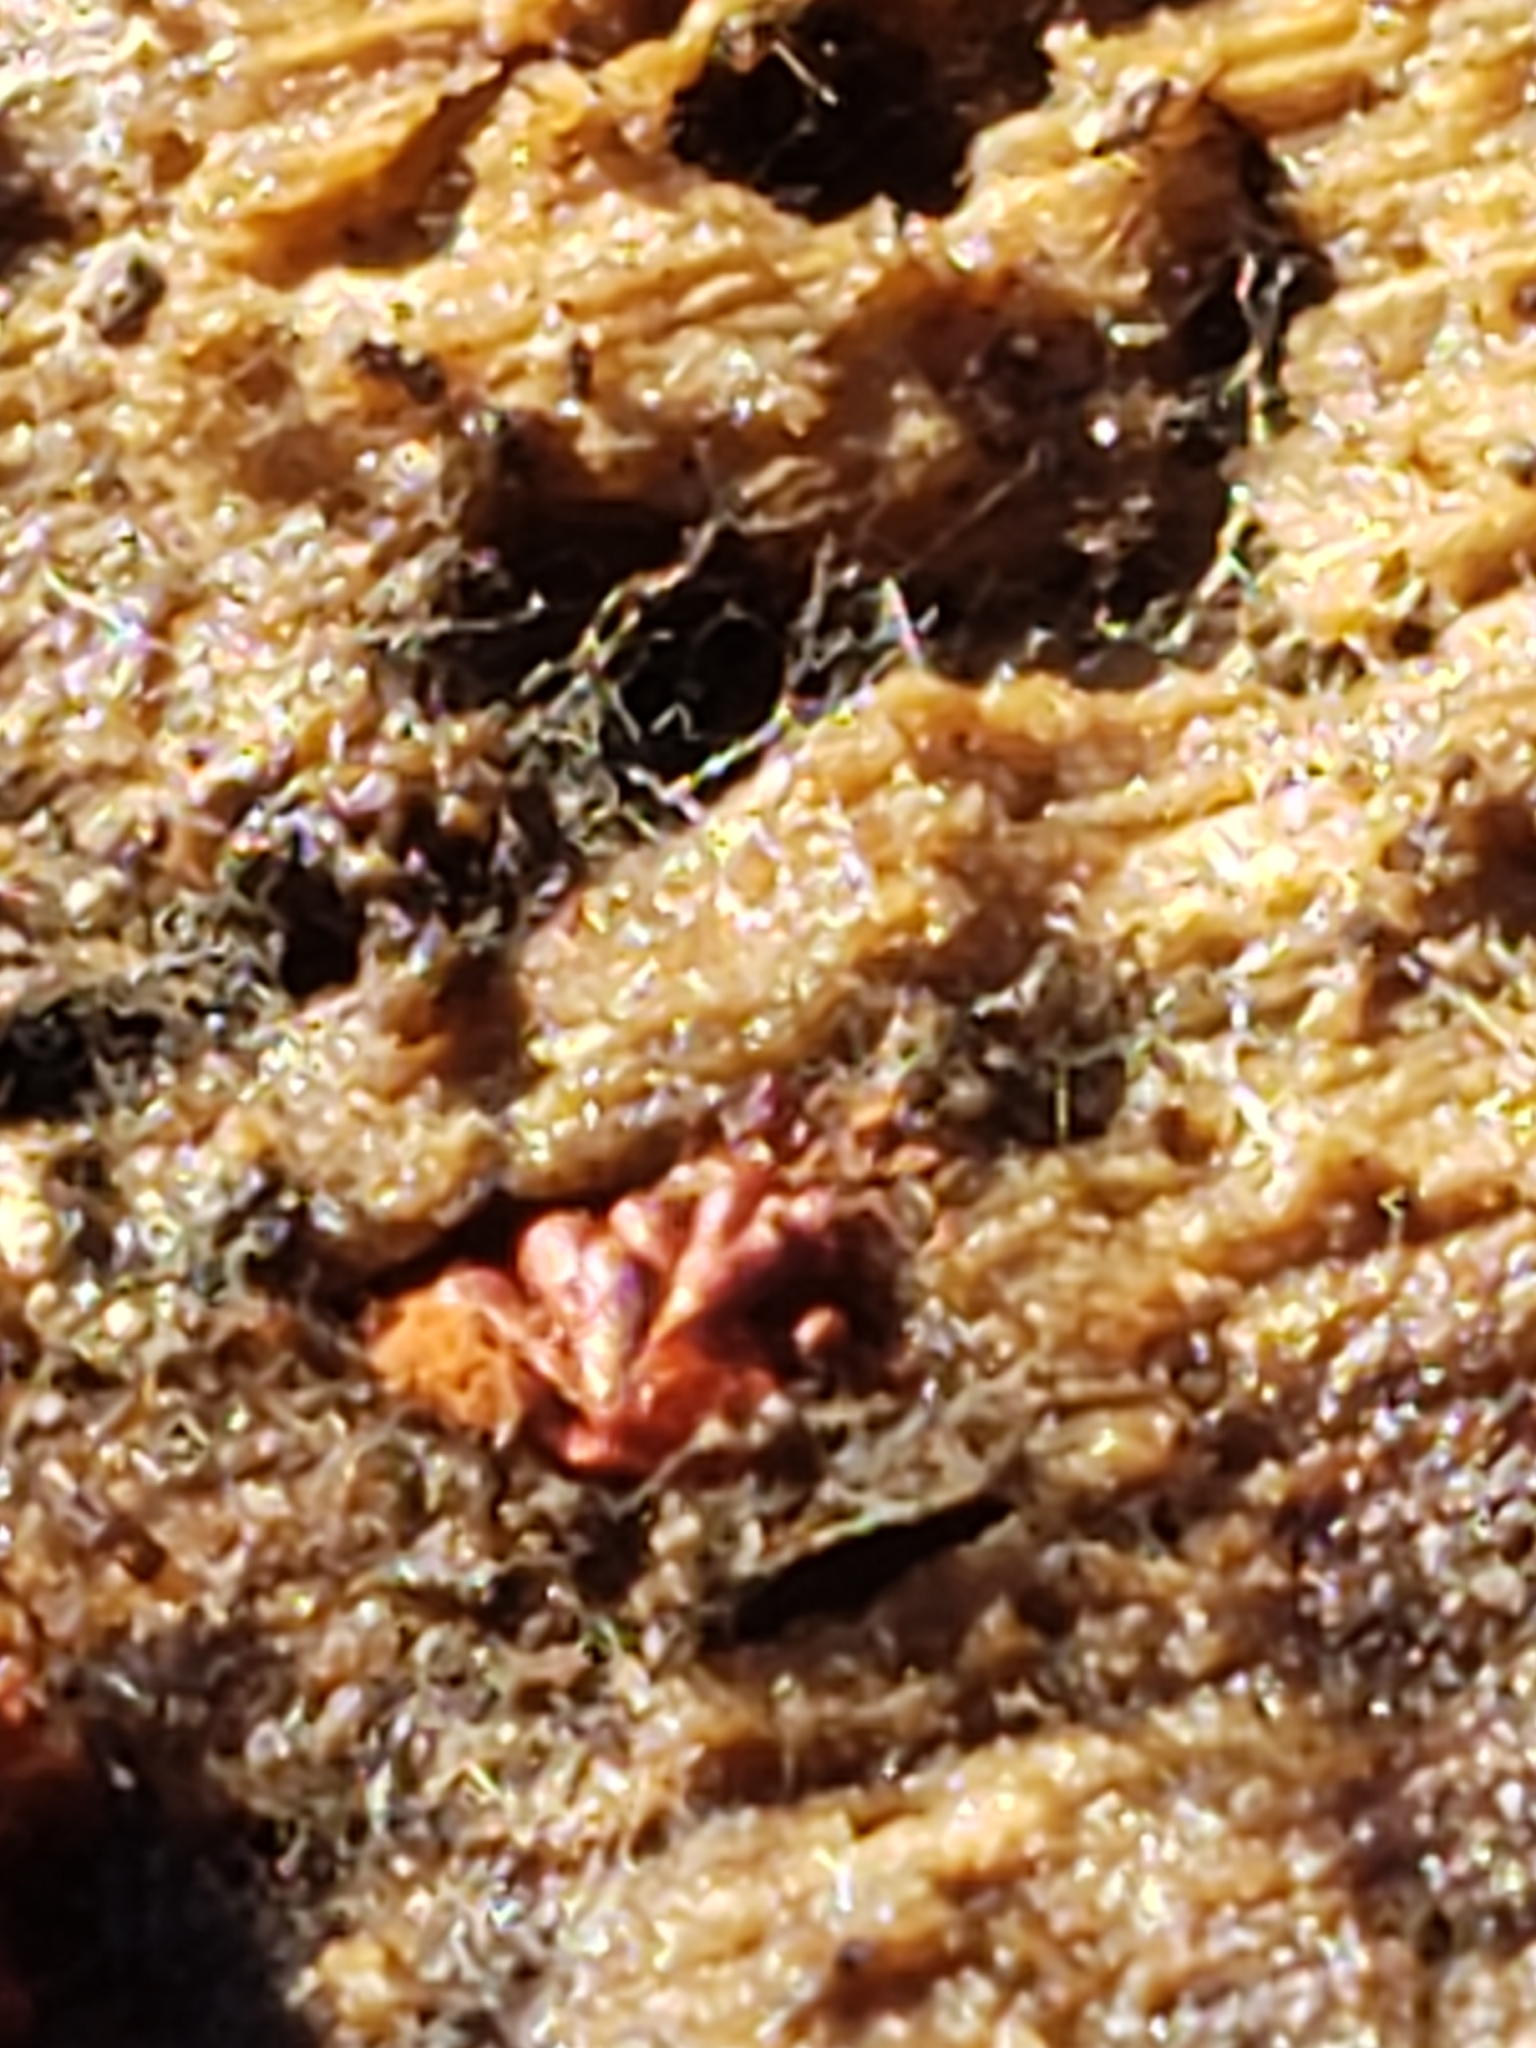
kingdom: Protozoa
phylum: Mycetozoa
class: Myxomycetes
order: Trichiales
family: Trichiaceae
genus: Metatrichia
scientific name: Metatrichia vesparia
